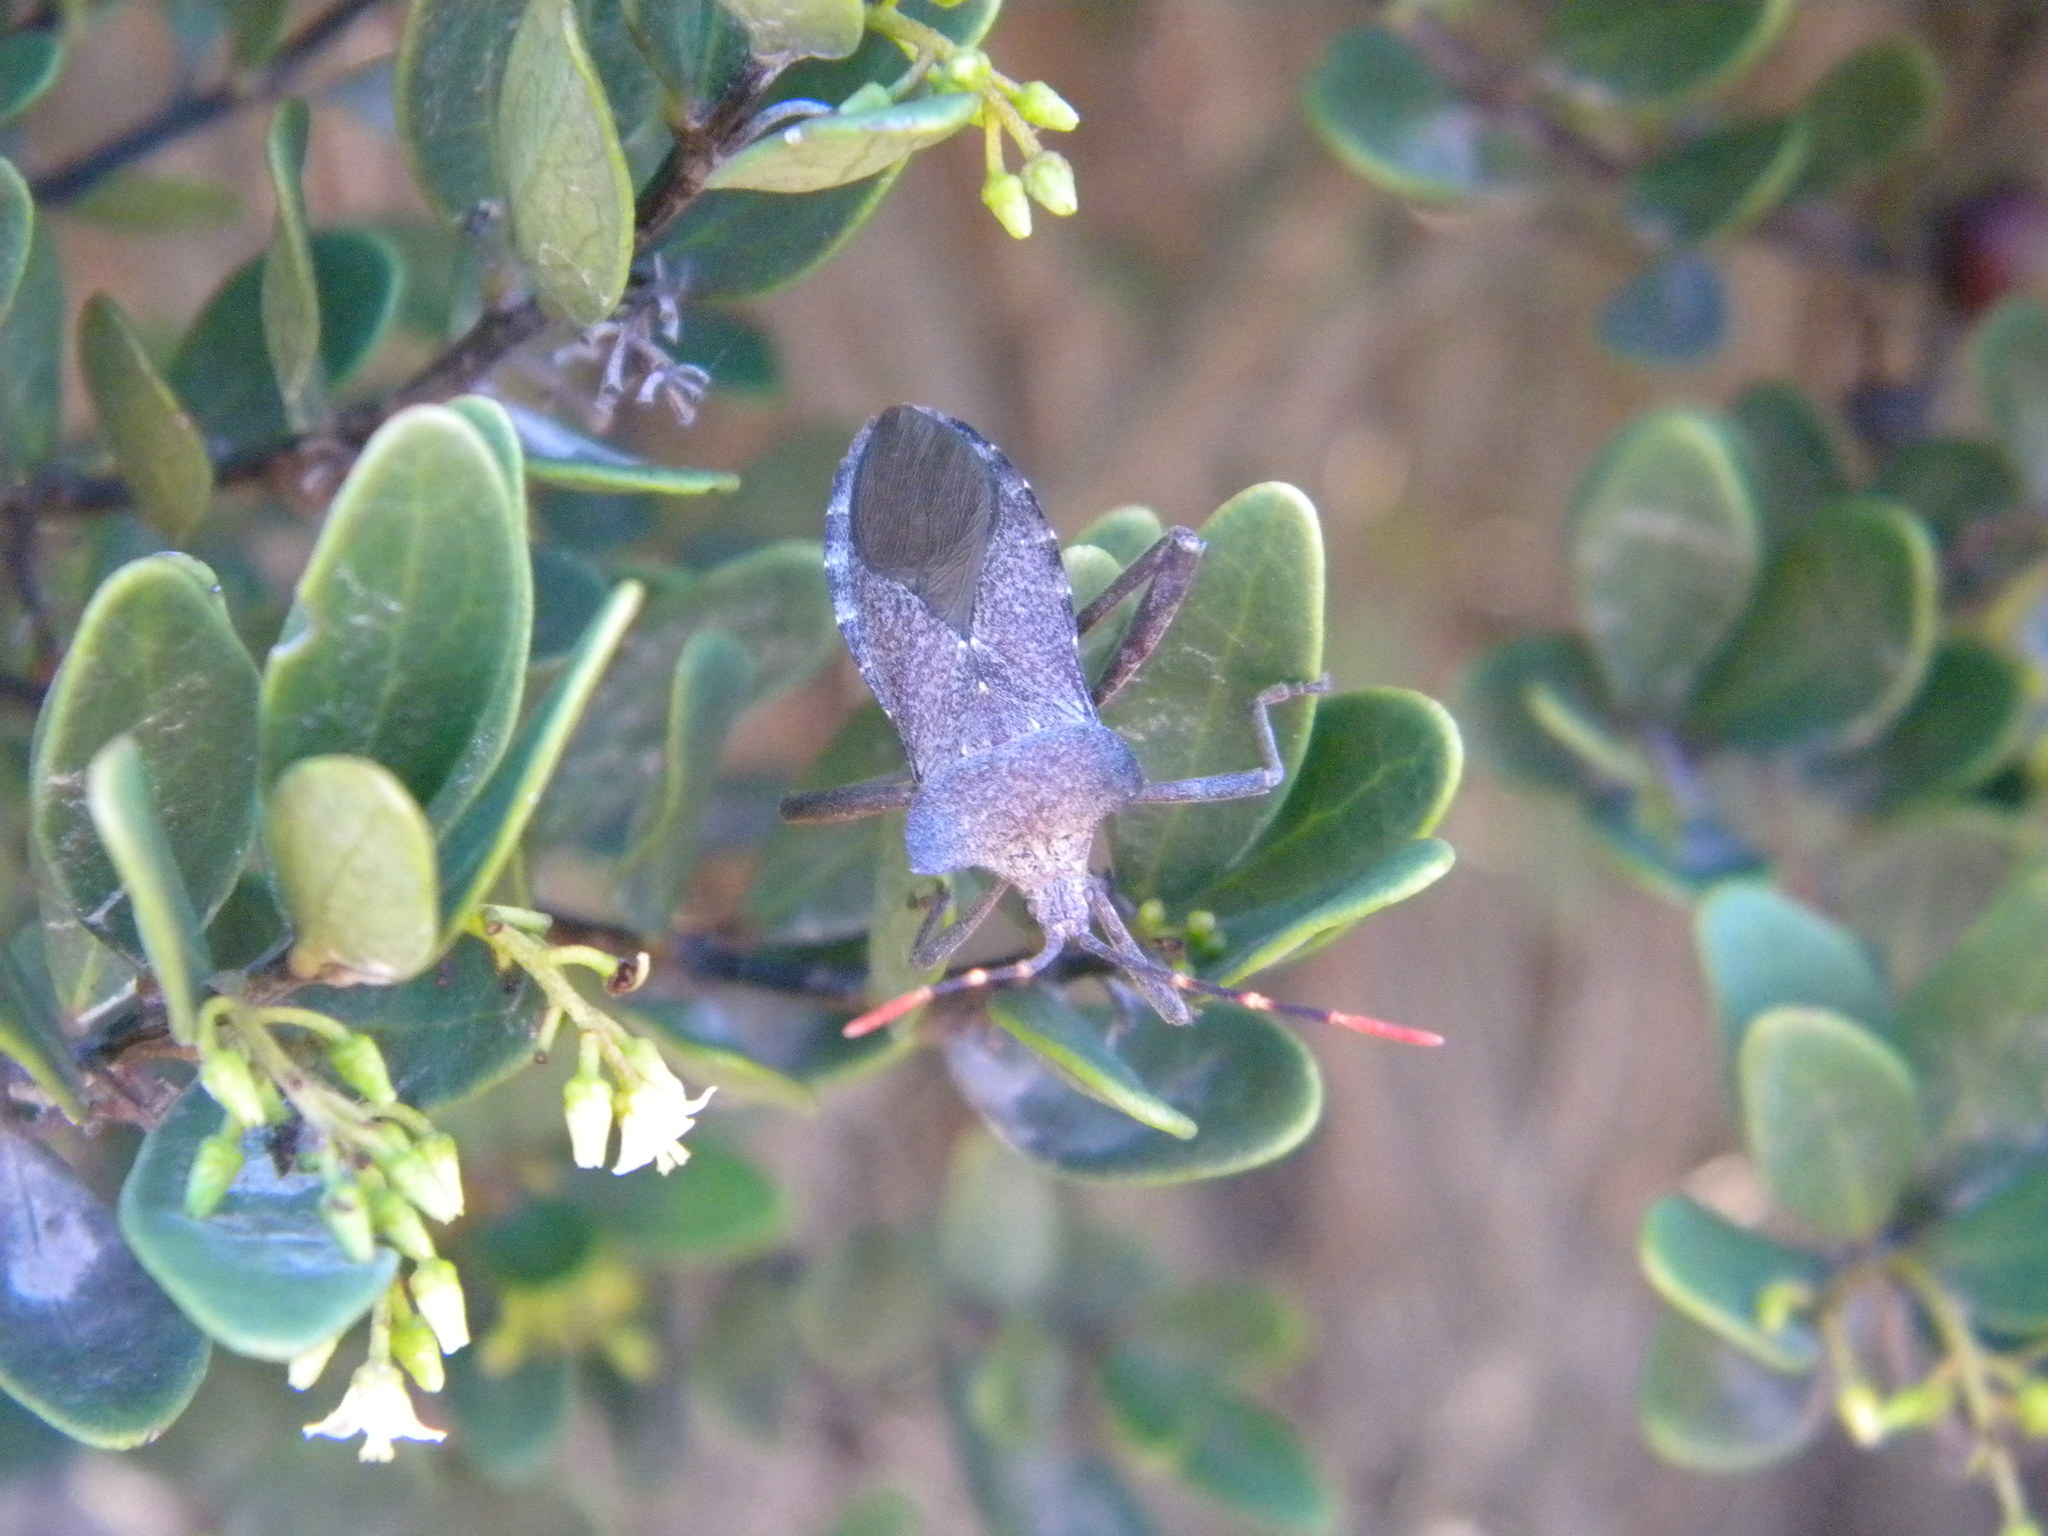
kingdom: Animalia
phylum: Arthropoda
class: Insecta
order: Hemiptera
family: Coreidae
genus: Elasmopoda
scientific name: Elasmopoda valga
